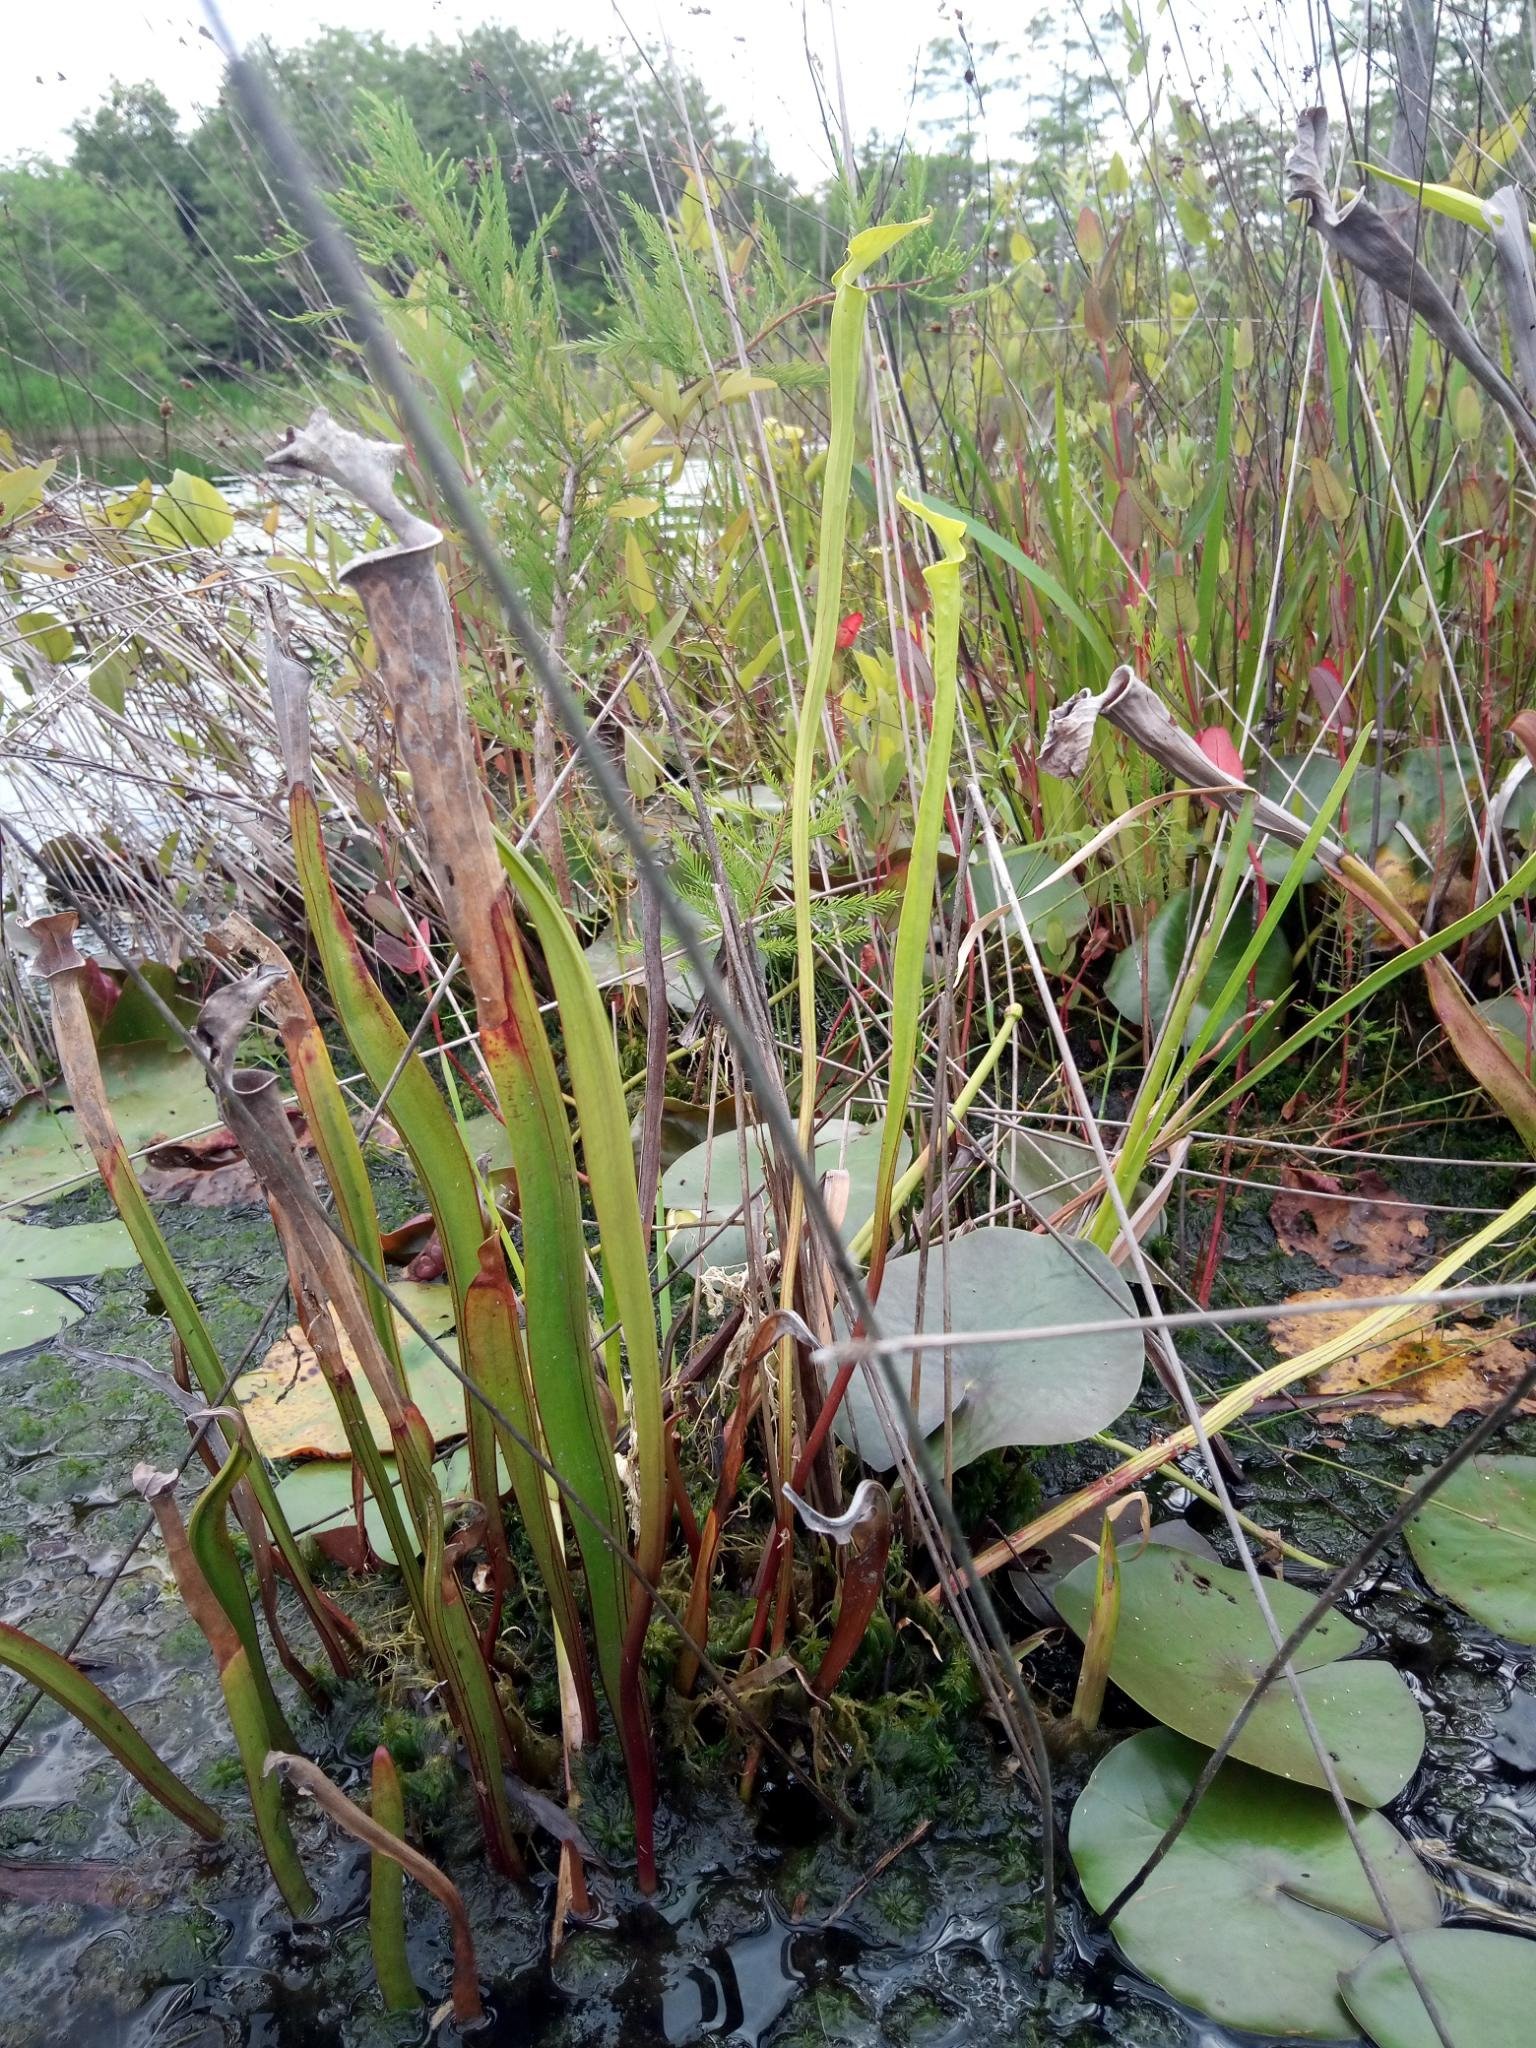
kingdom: Plantae
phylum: Tracheophyta
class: Magnoliopsida
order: Ericales
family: Sarraceniaceae
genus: Sarracenia
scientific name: Sarracenia flava
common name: Trumpets
